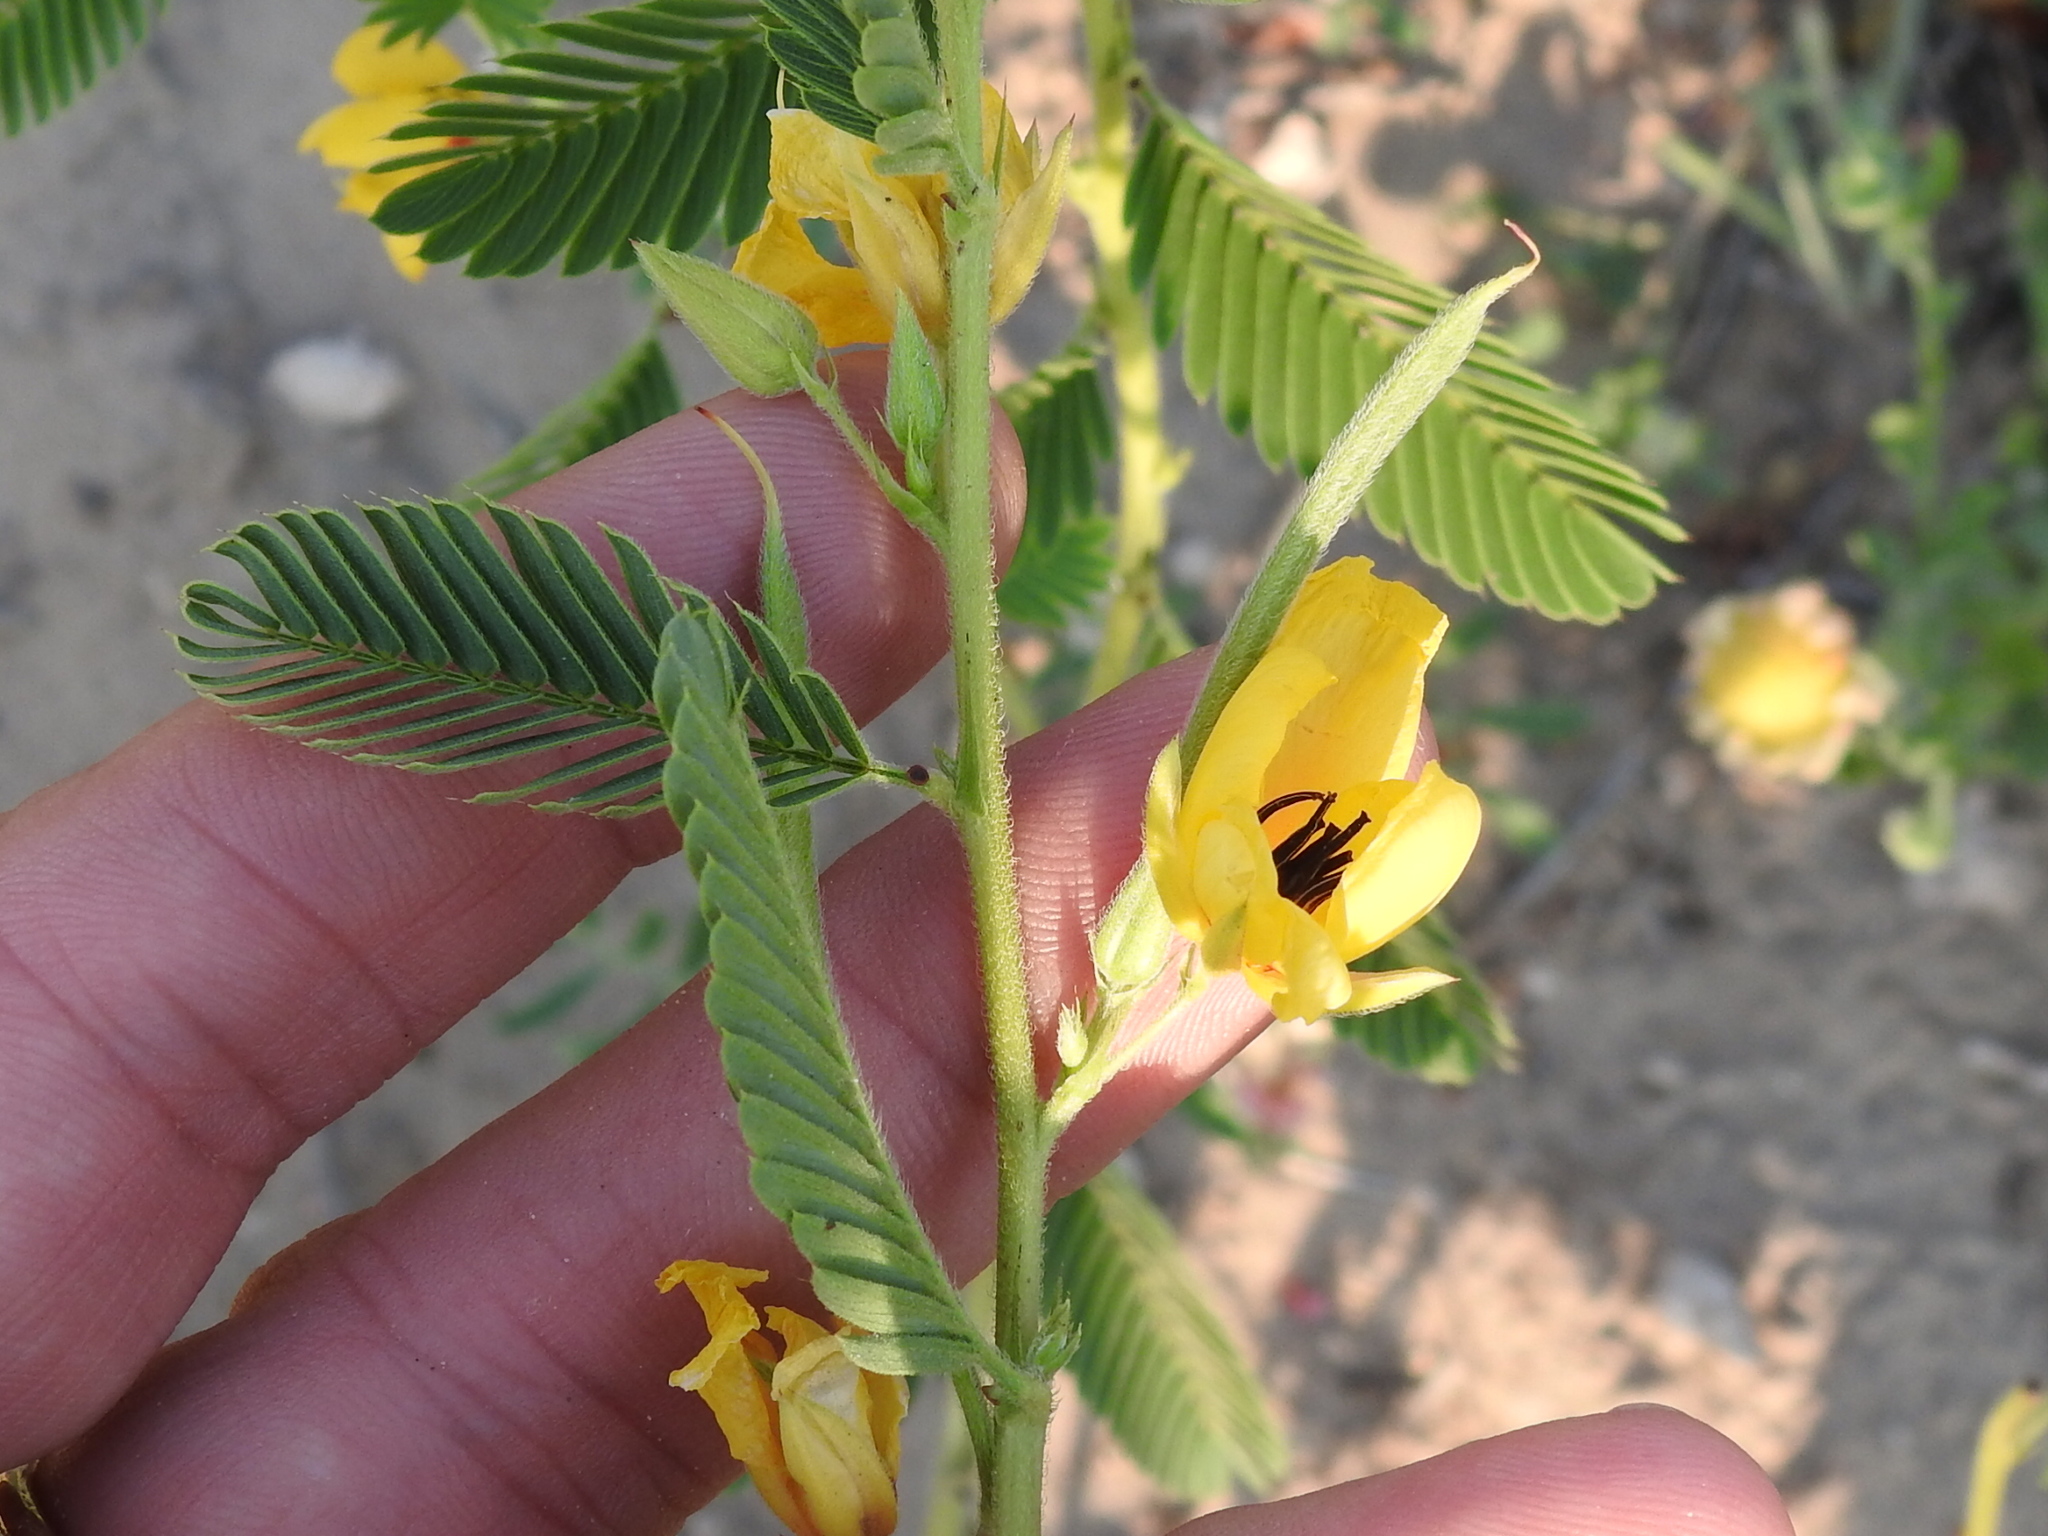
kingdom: Plantae
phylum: Tracheophyta
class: Magnoliopsida
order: Fabales
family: Fabaceae
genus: Chamaecrista
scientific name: Chamaecrista fasciculata
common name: Golden cassia
